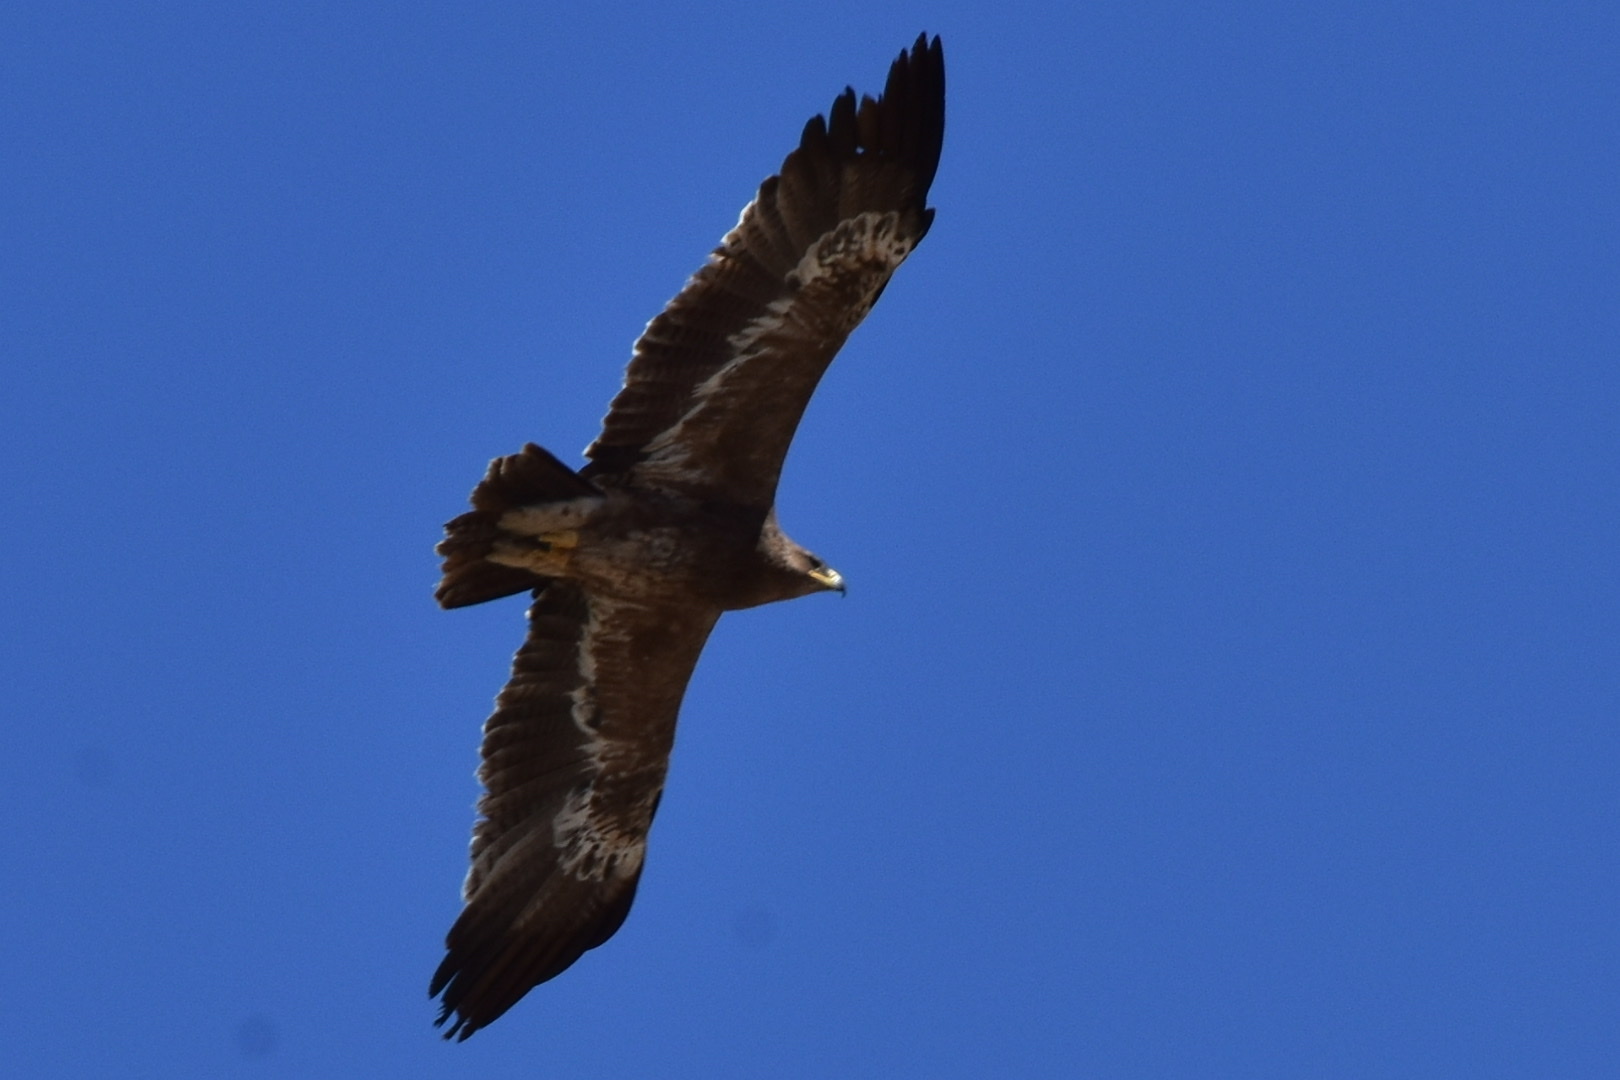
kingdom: Animalia
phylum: Chordata
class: Aves
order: Accipitriformes
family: Accipitridae
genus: Aquila
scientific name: Aquila nipalensis
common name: Steppe eagle
